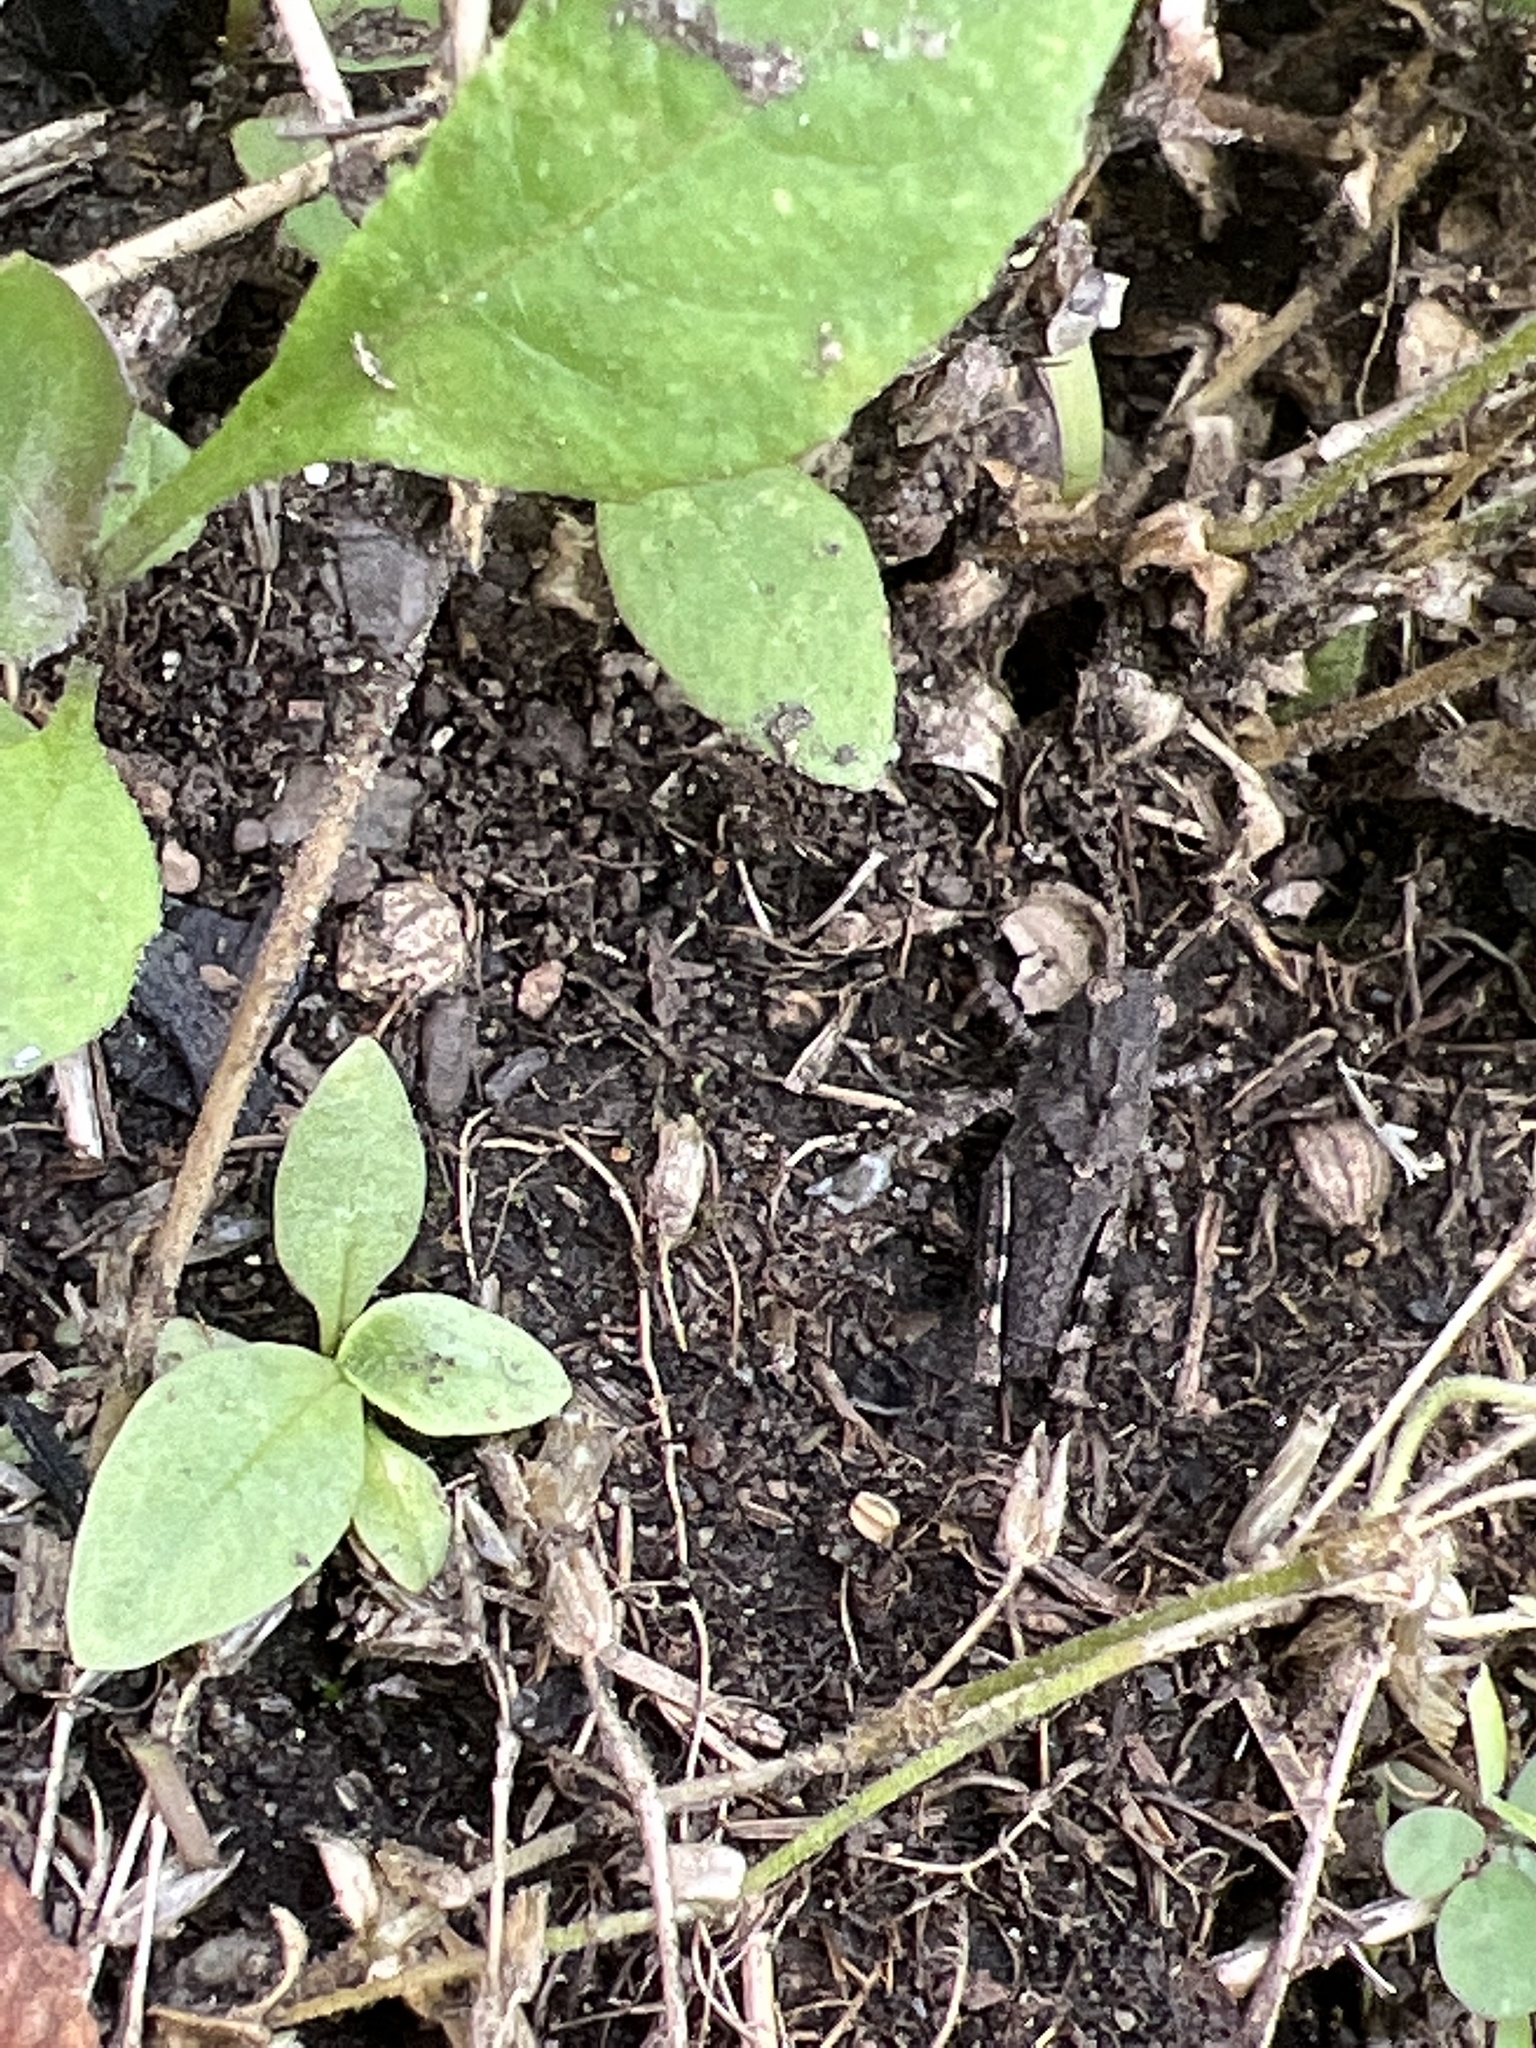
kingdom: Animalia
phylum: Arthropoda
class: Insecta
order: Orthoptera
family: Acrididae
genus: Dissosteira
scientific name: Dissosteira carolina
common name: Carolina grasshopper
